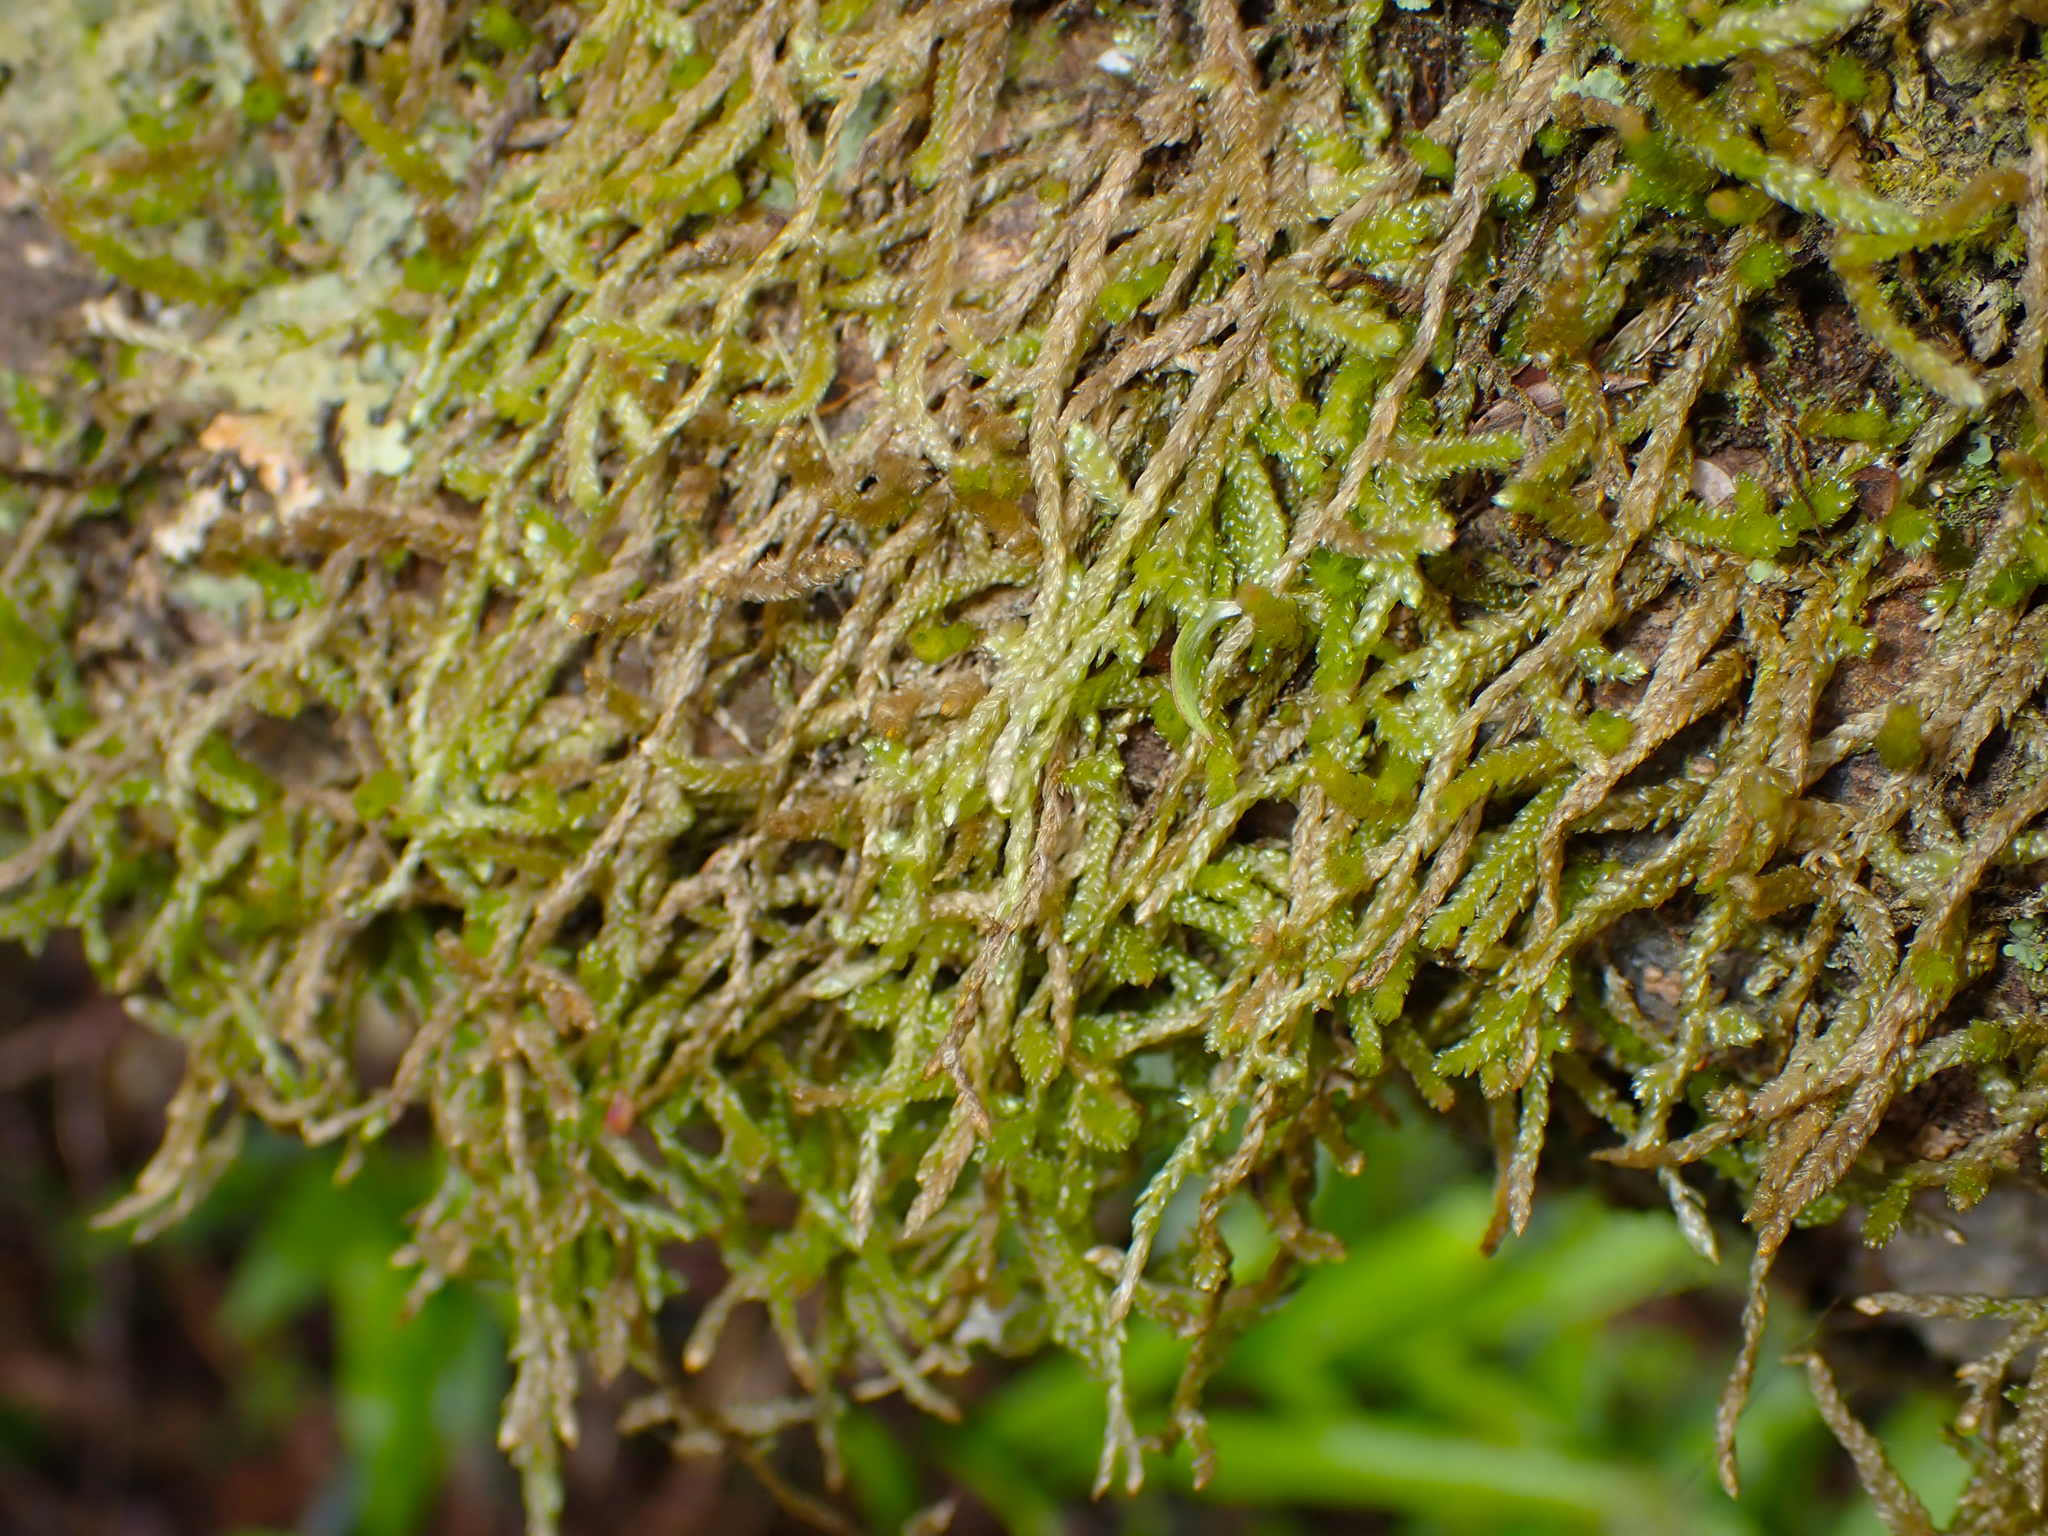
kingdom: Plantae
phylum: Bryophyta
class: Bryopsida
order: Hypnales
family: Lembophyllaceae
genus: Weymouthia
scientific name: Weymouthia mollis
